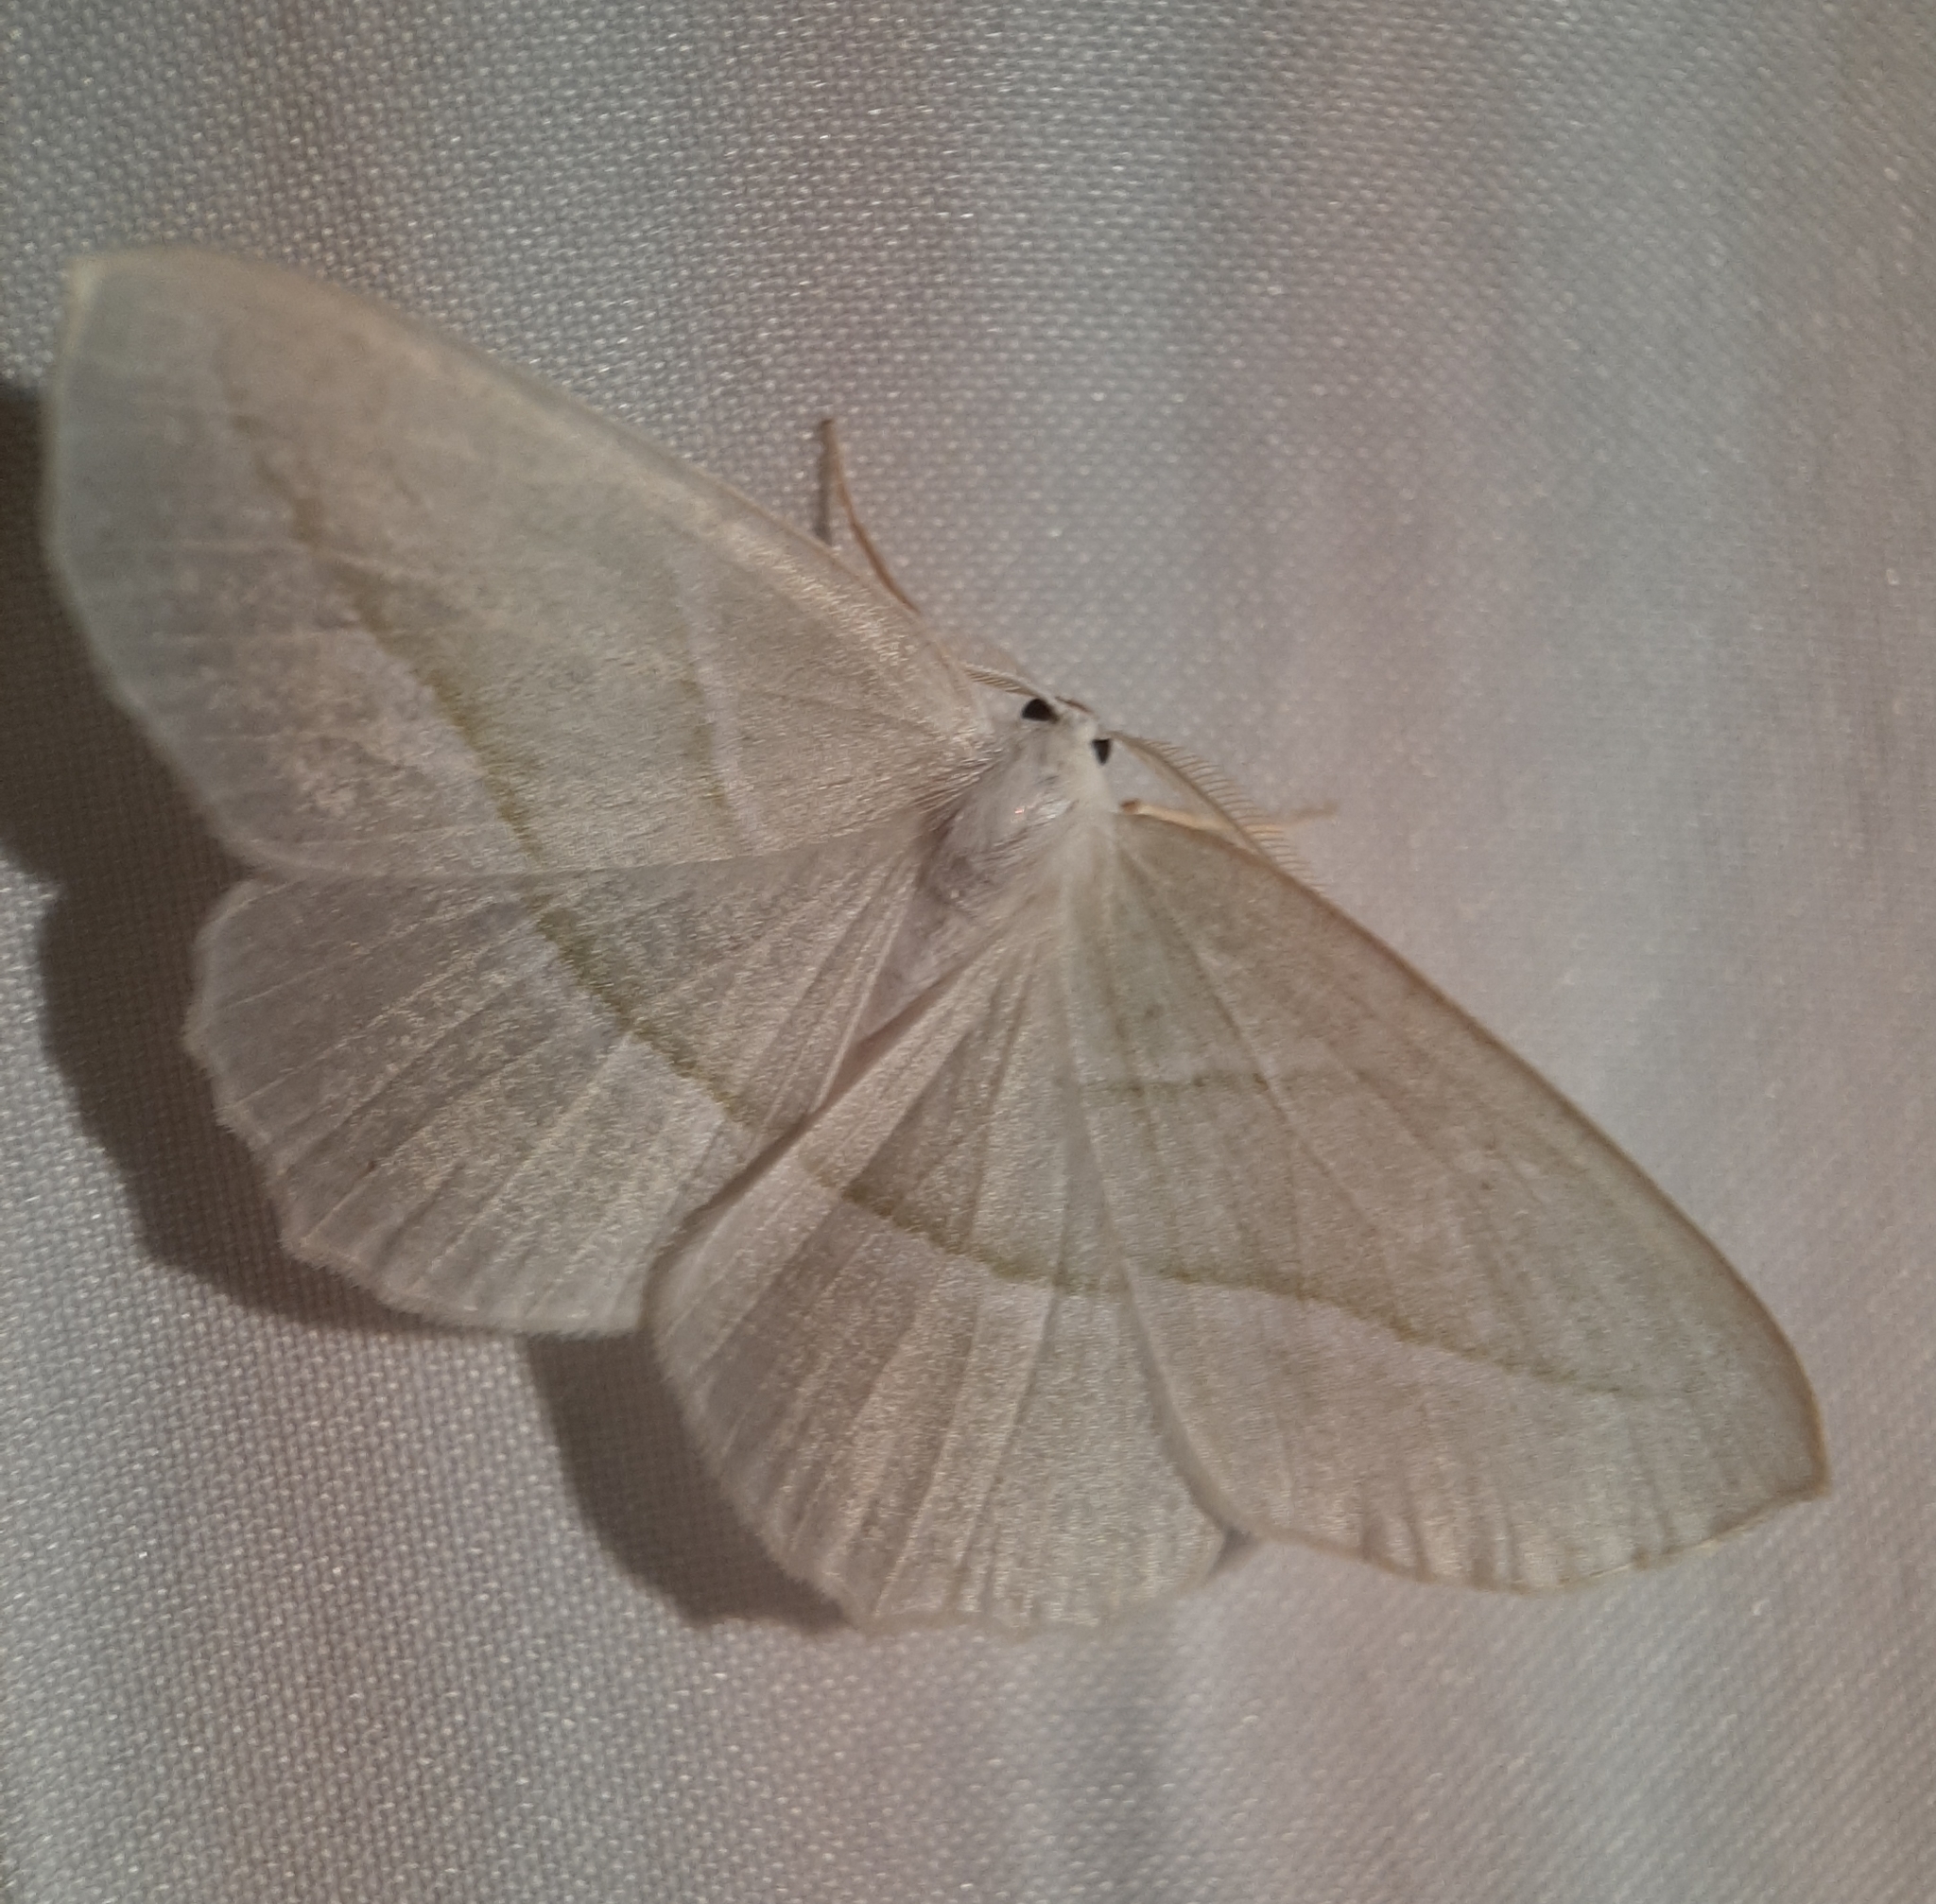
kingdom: Animalia
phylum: Arthropoda
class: Insecta
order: Lepidoptera
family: Geometridae
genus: Campaea
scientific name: Campaea perlata
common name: Fringed looper
